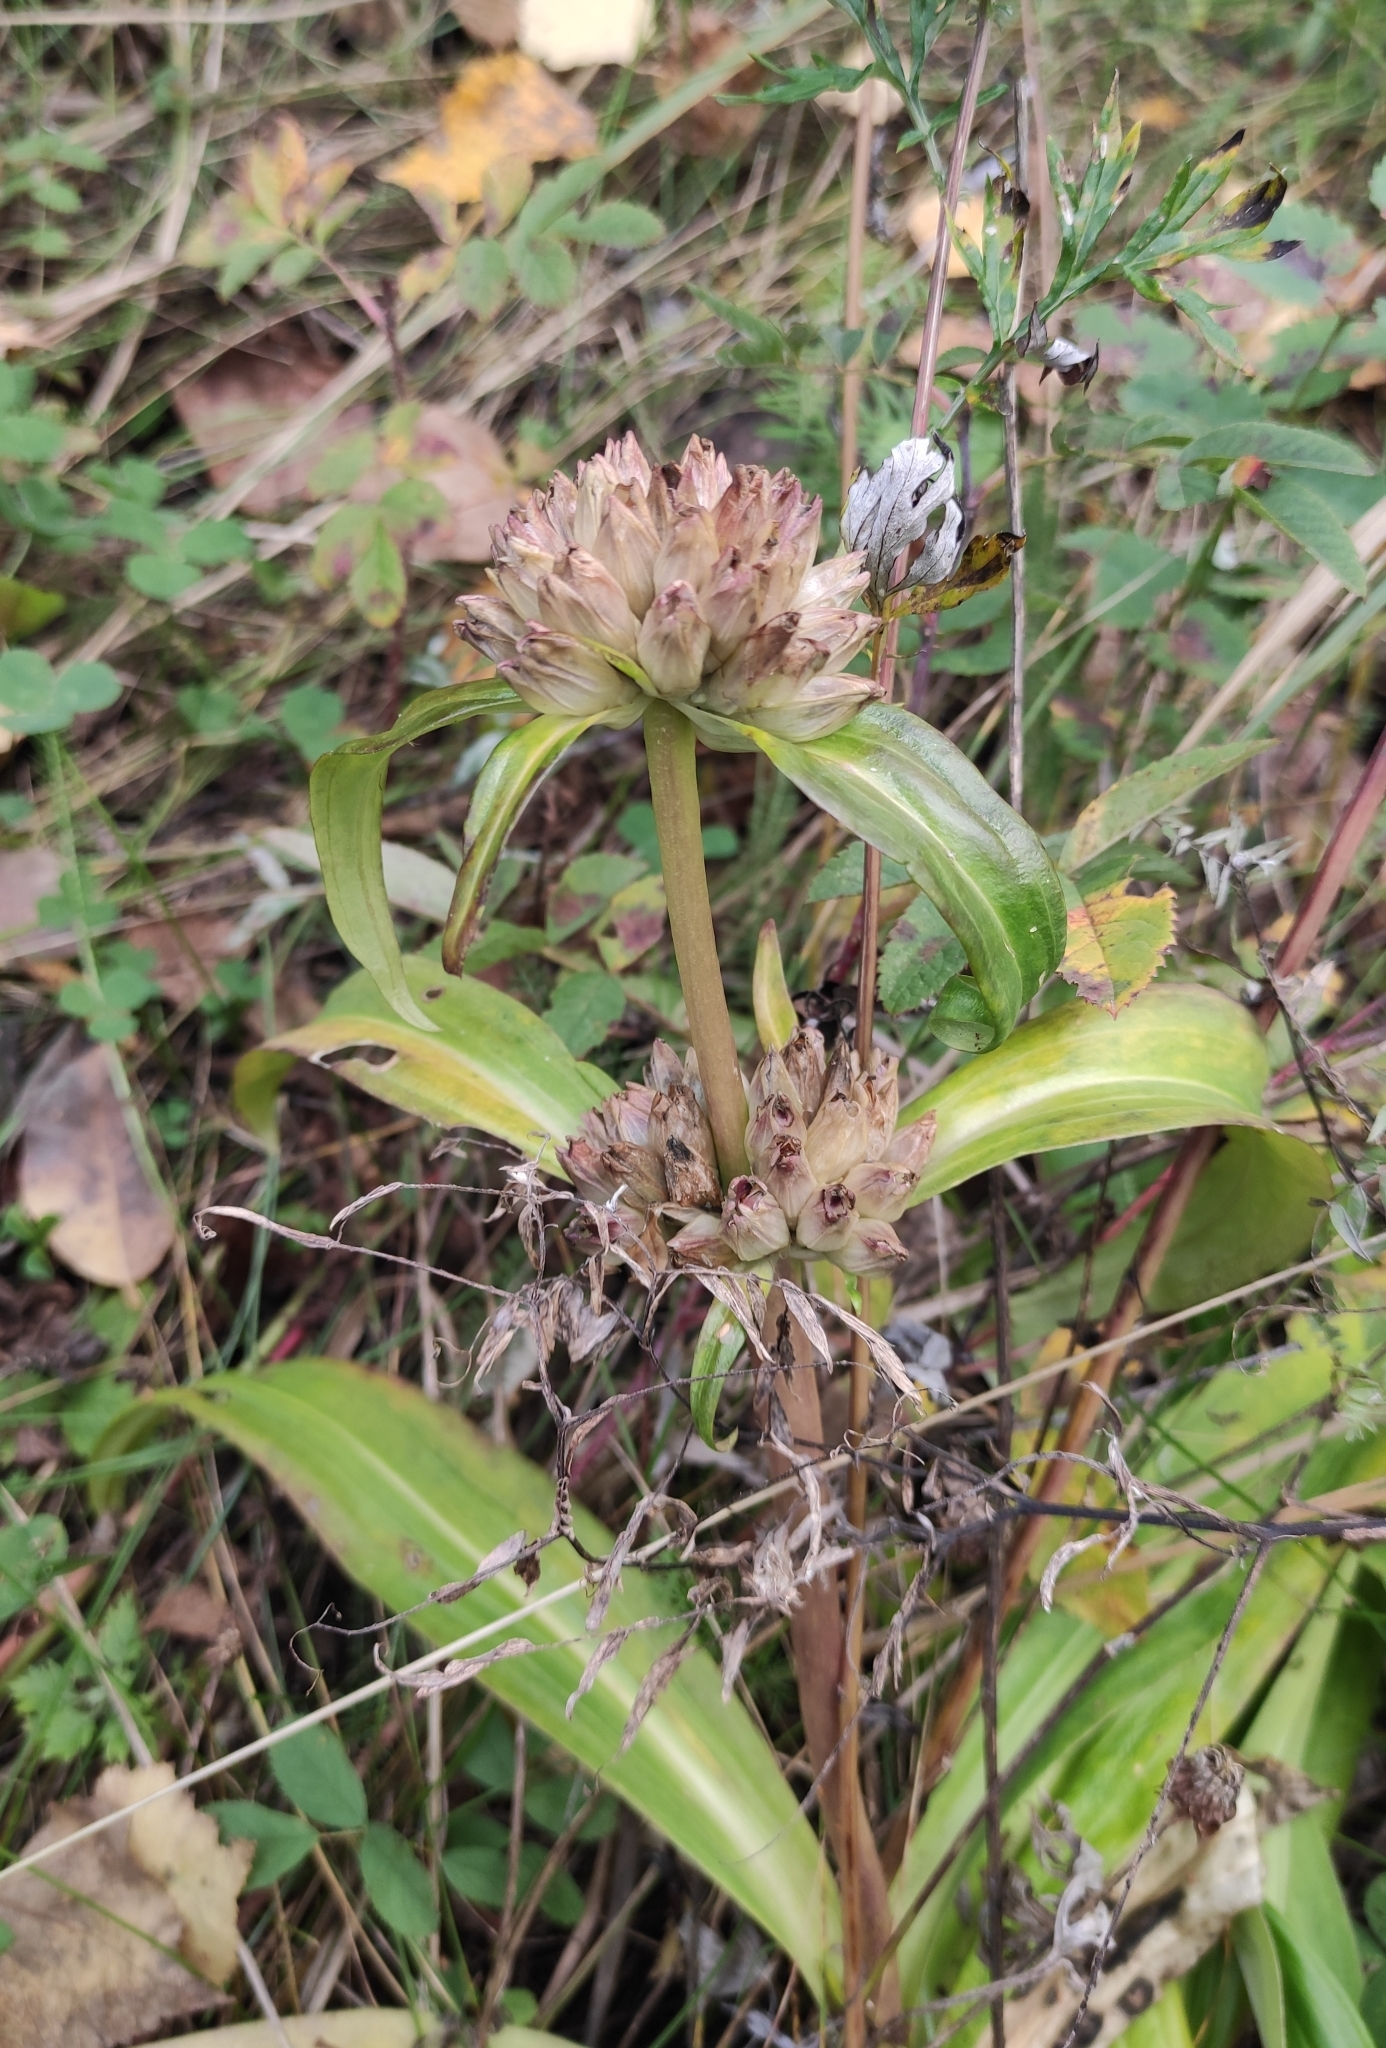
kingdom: Plantae
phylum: Tracheophyta
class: Magnoliopsida
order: Gentianales
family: Gentianaceae
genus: Gentiana
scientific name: Gentiana macrophylla
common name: Large-leaf gentian
